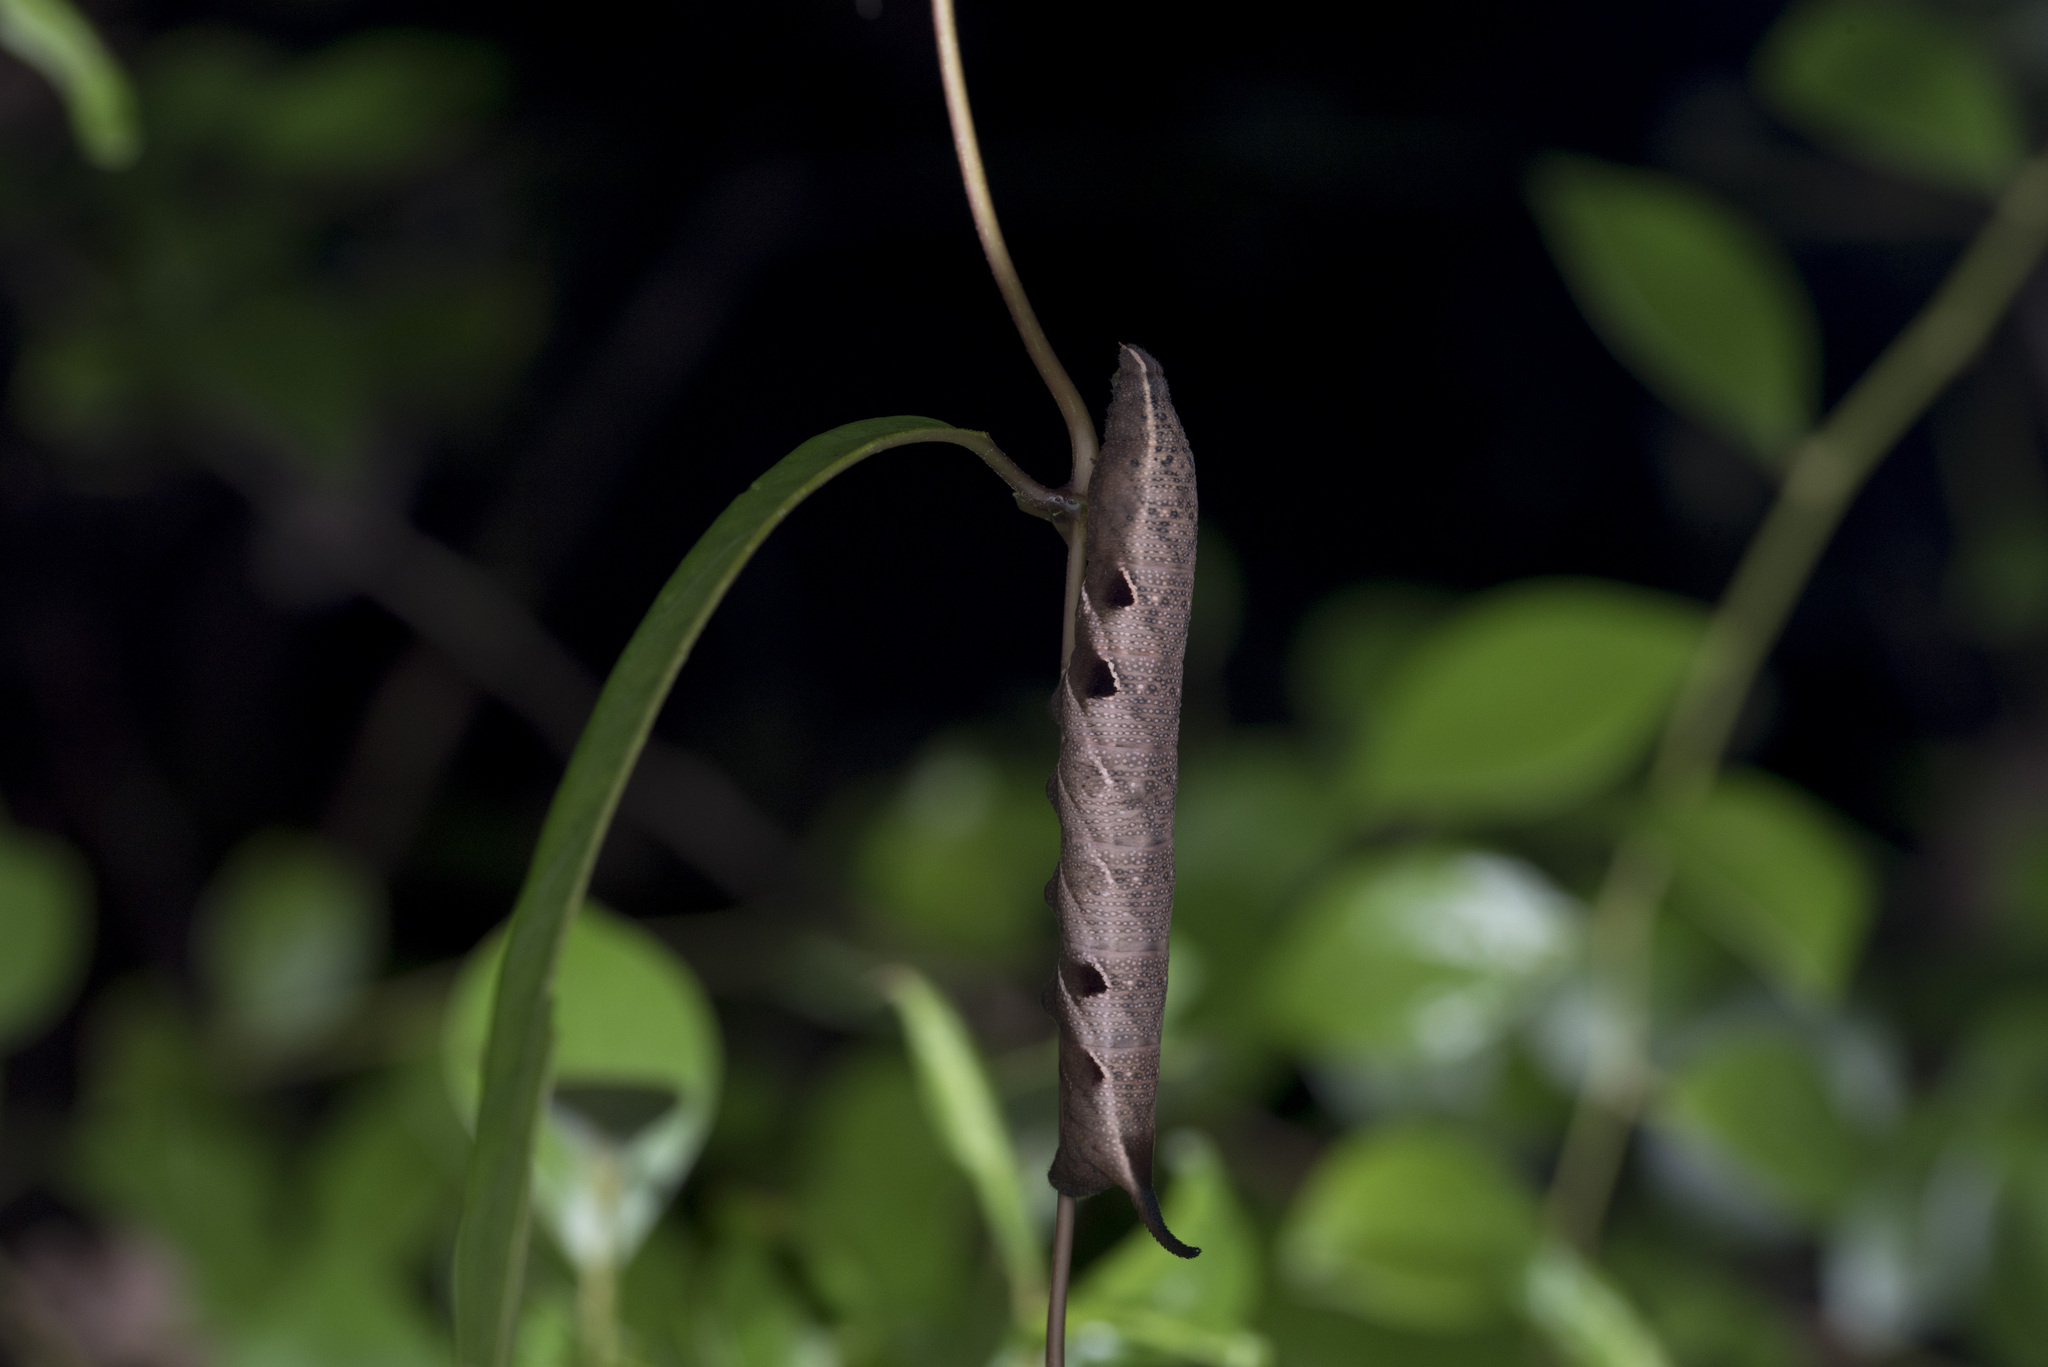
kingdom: Animalia
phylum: Arthropoda
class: Insecta
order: Lepidoptera
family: Sphingidae
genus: Neogurelca
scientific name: Neogurelca hyas
